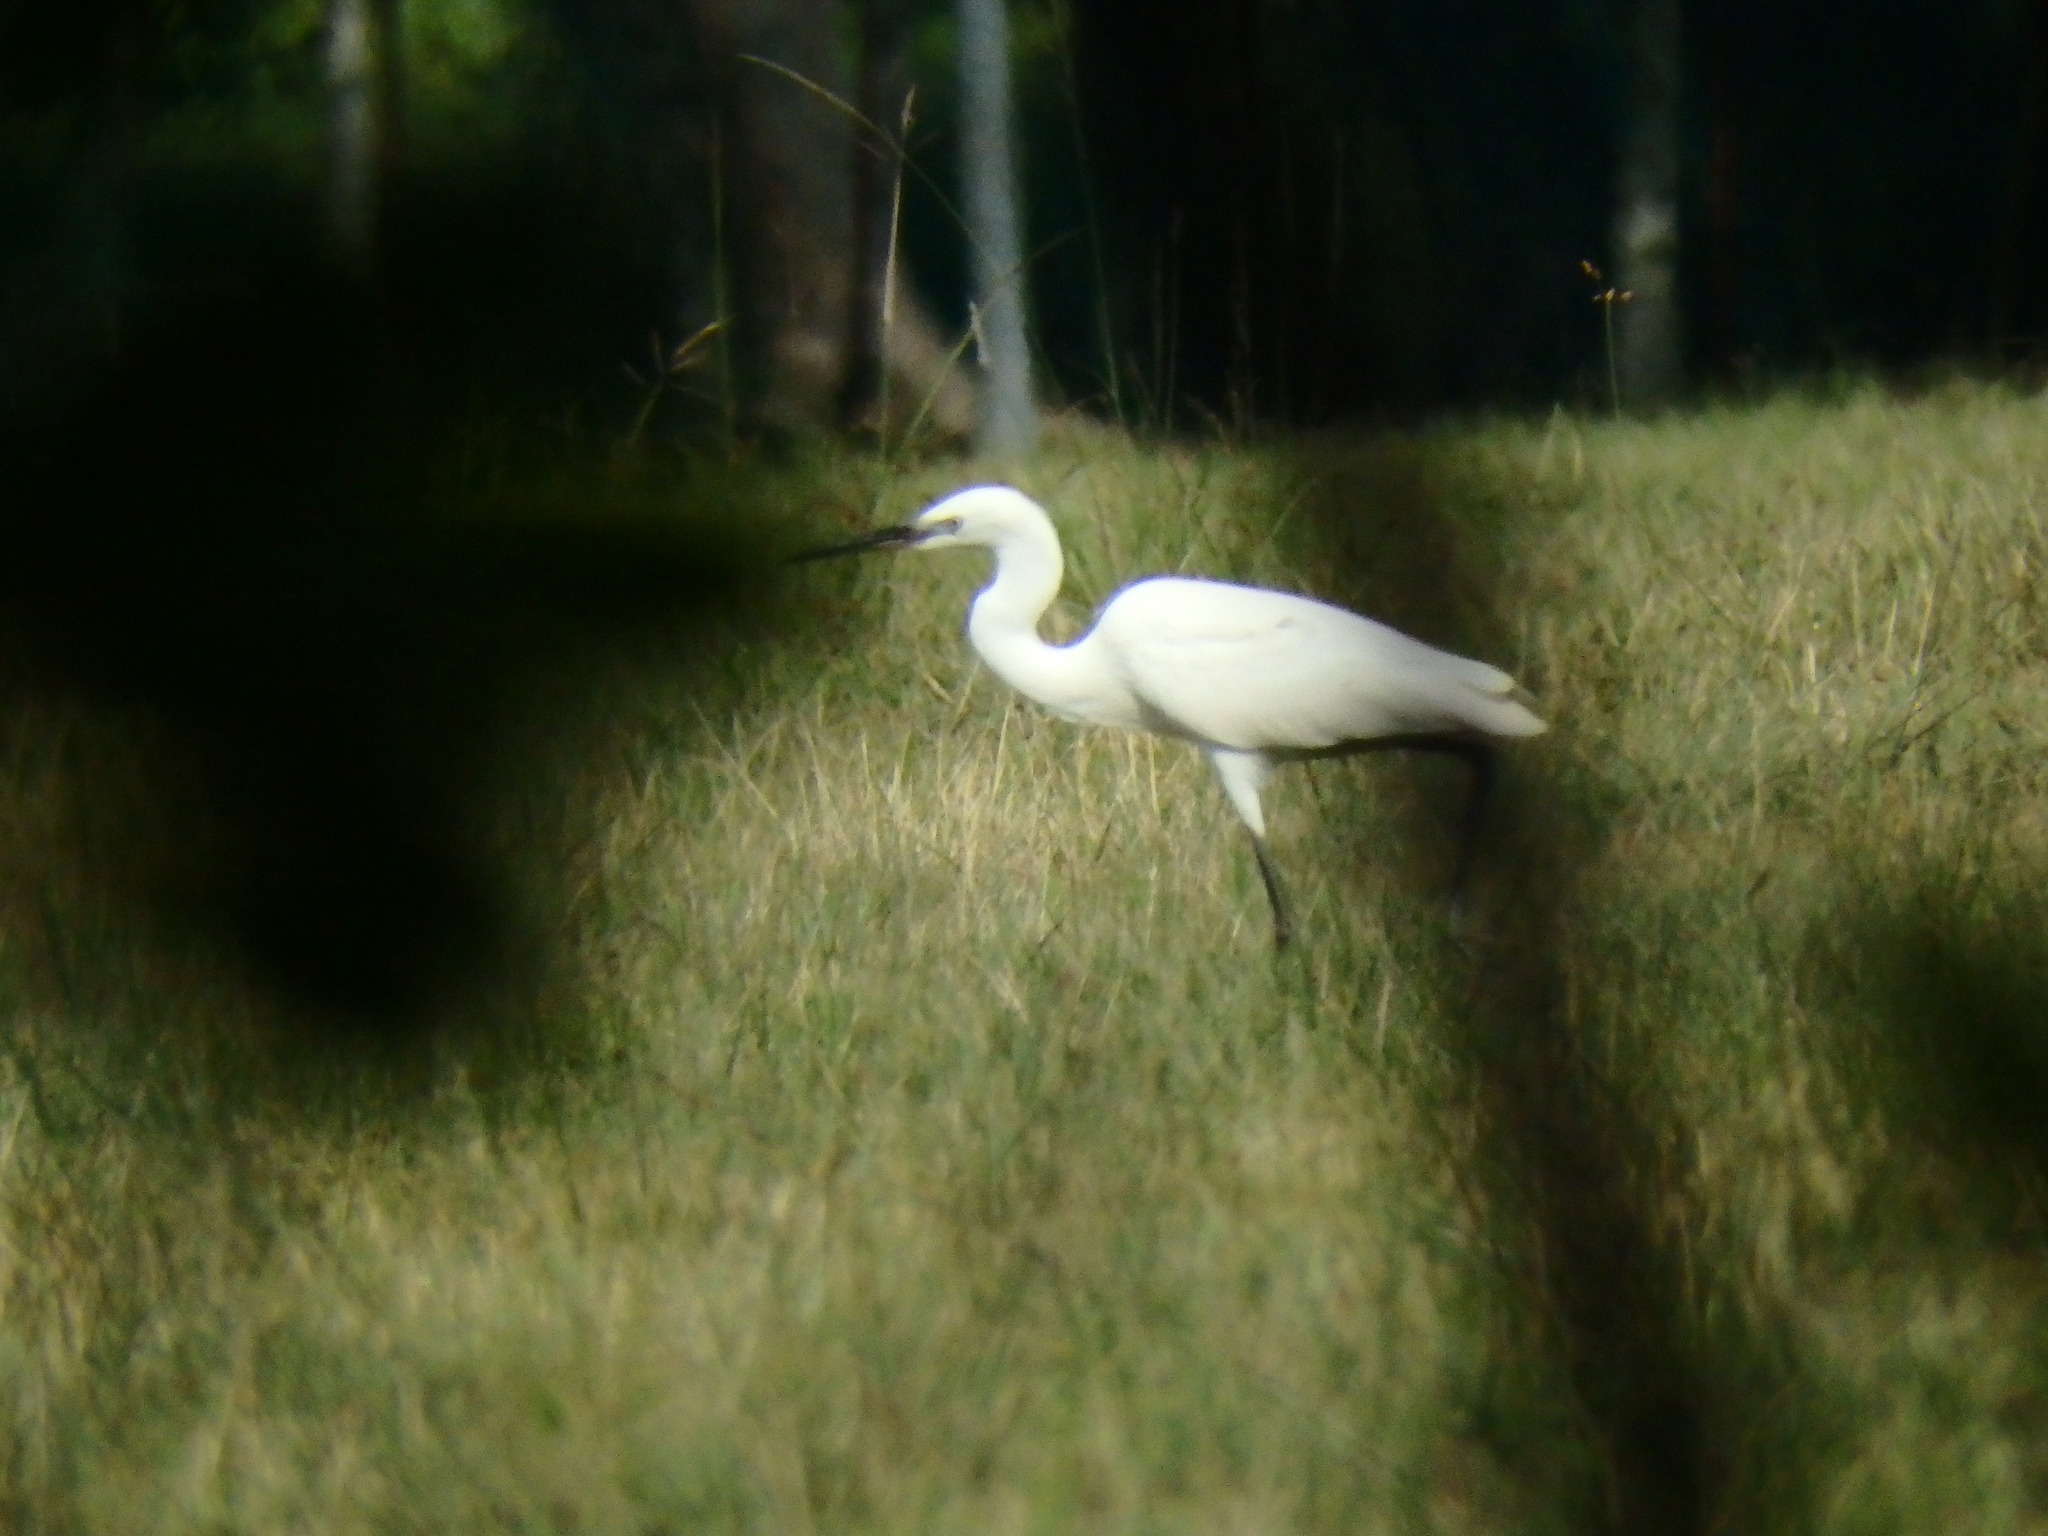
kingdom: Animalia
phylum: Chordata
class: Aves
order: Pelecaniformes
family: Ardeidae
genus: Egretta
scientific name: Egretta garzetta
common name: Little egret
